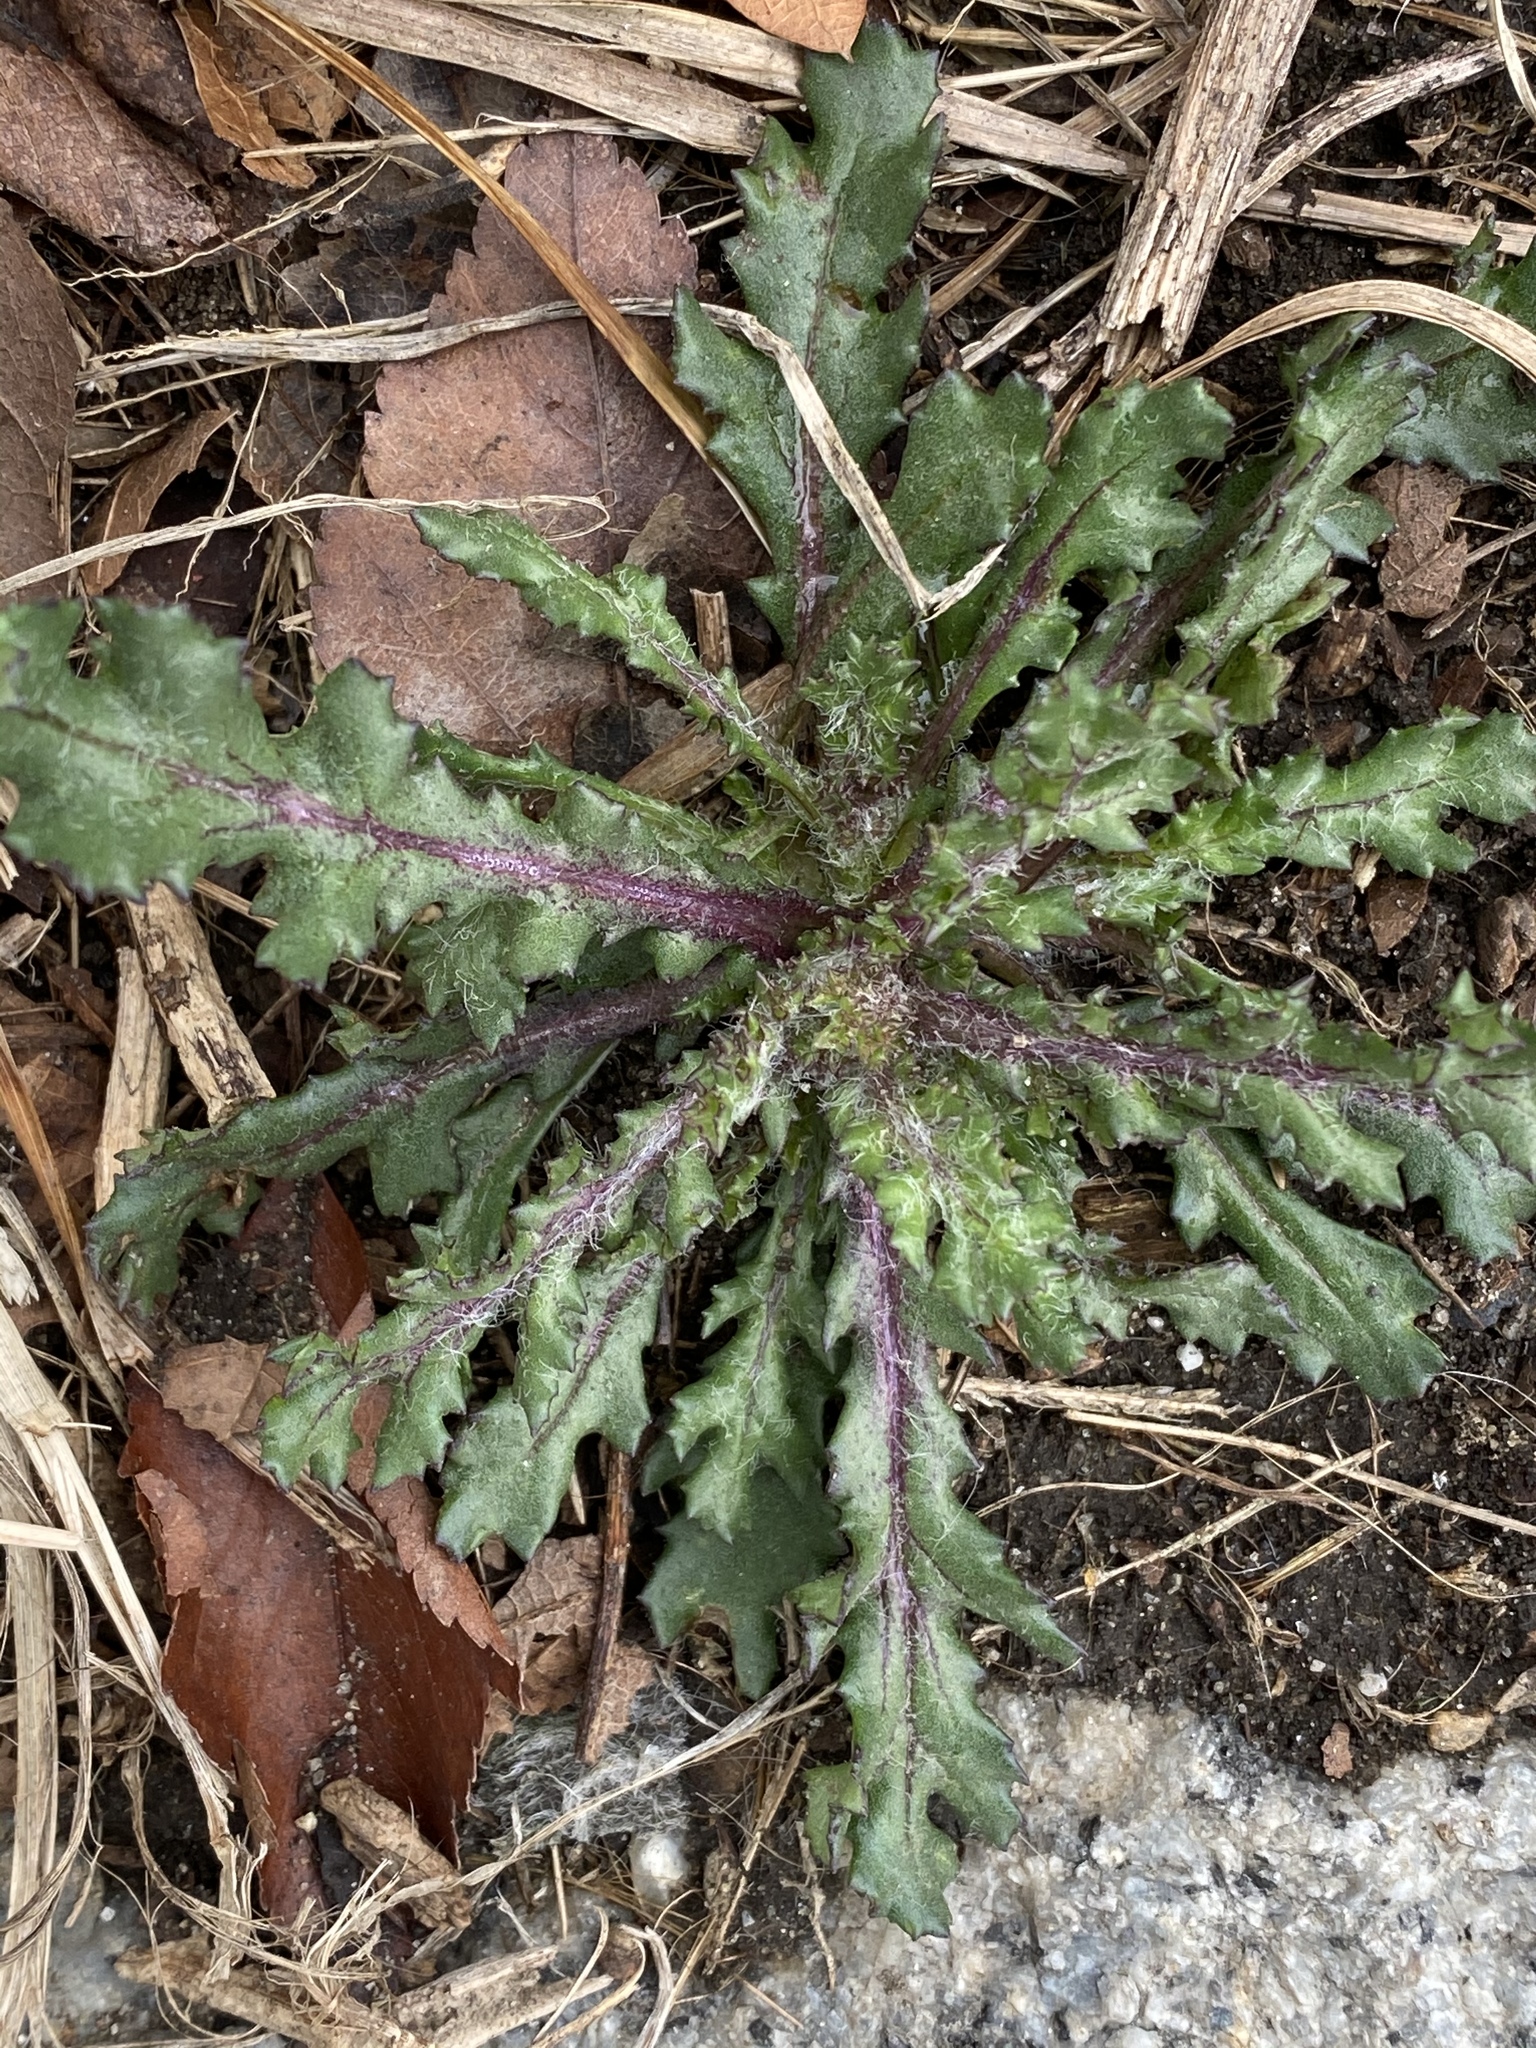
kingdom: Plantae
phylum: Tracheophyta
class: Magnoliopsida
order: Asterales
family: Asteraceae
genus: Senecio
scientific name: Senecio vulgaris
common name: Old-man-in-the-spring
